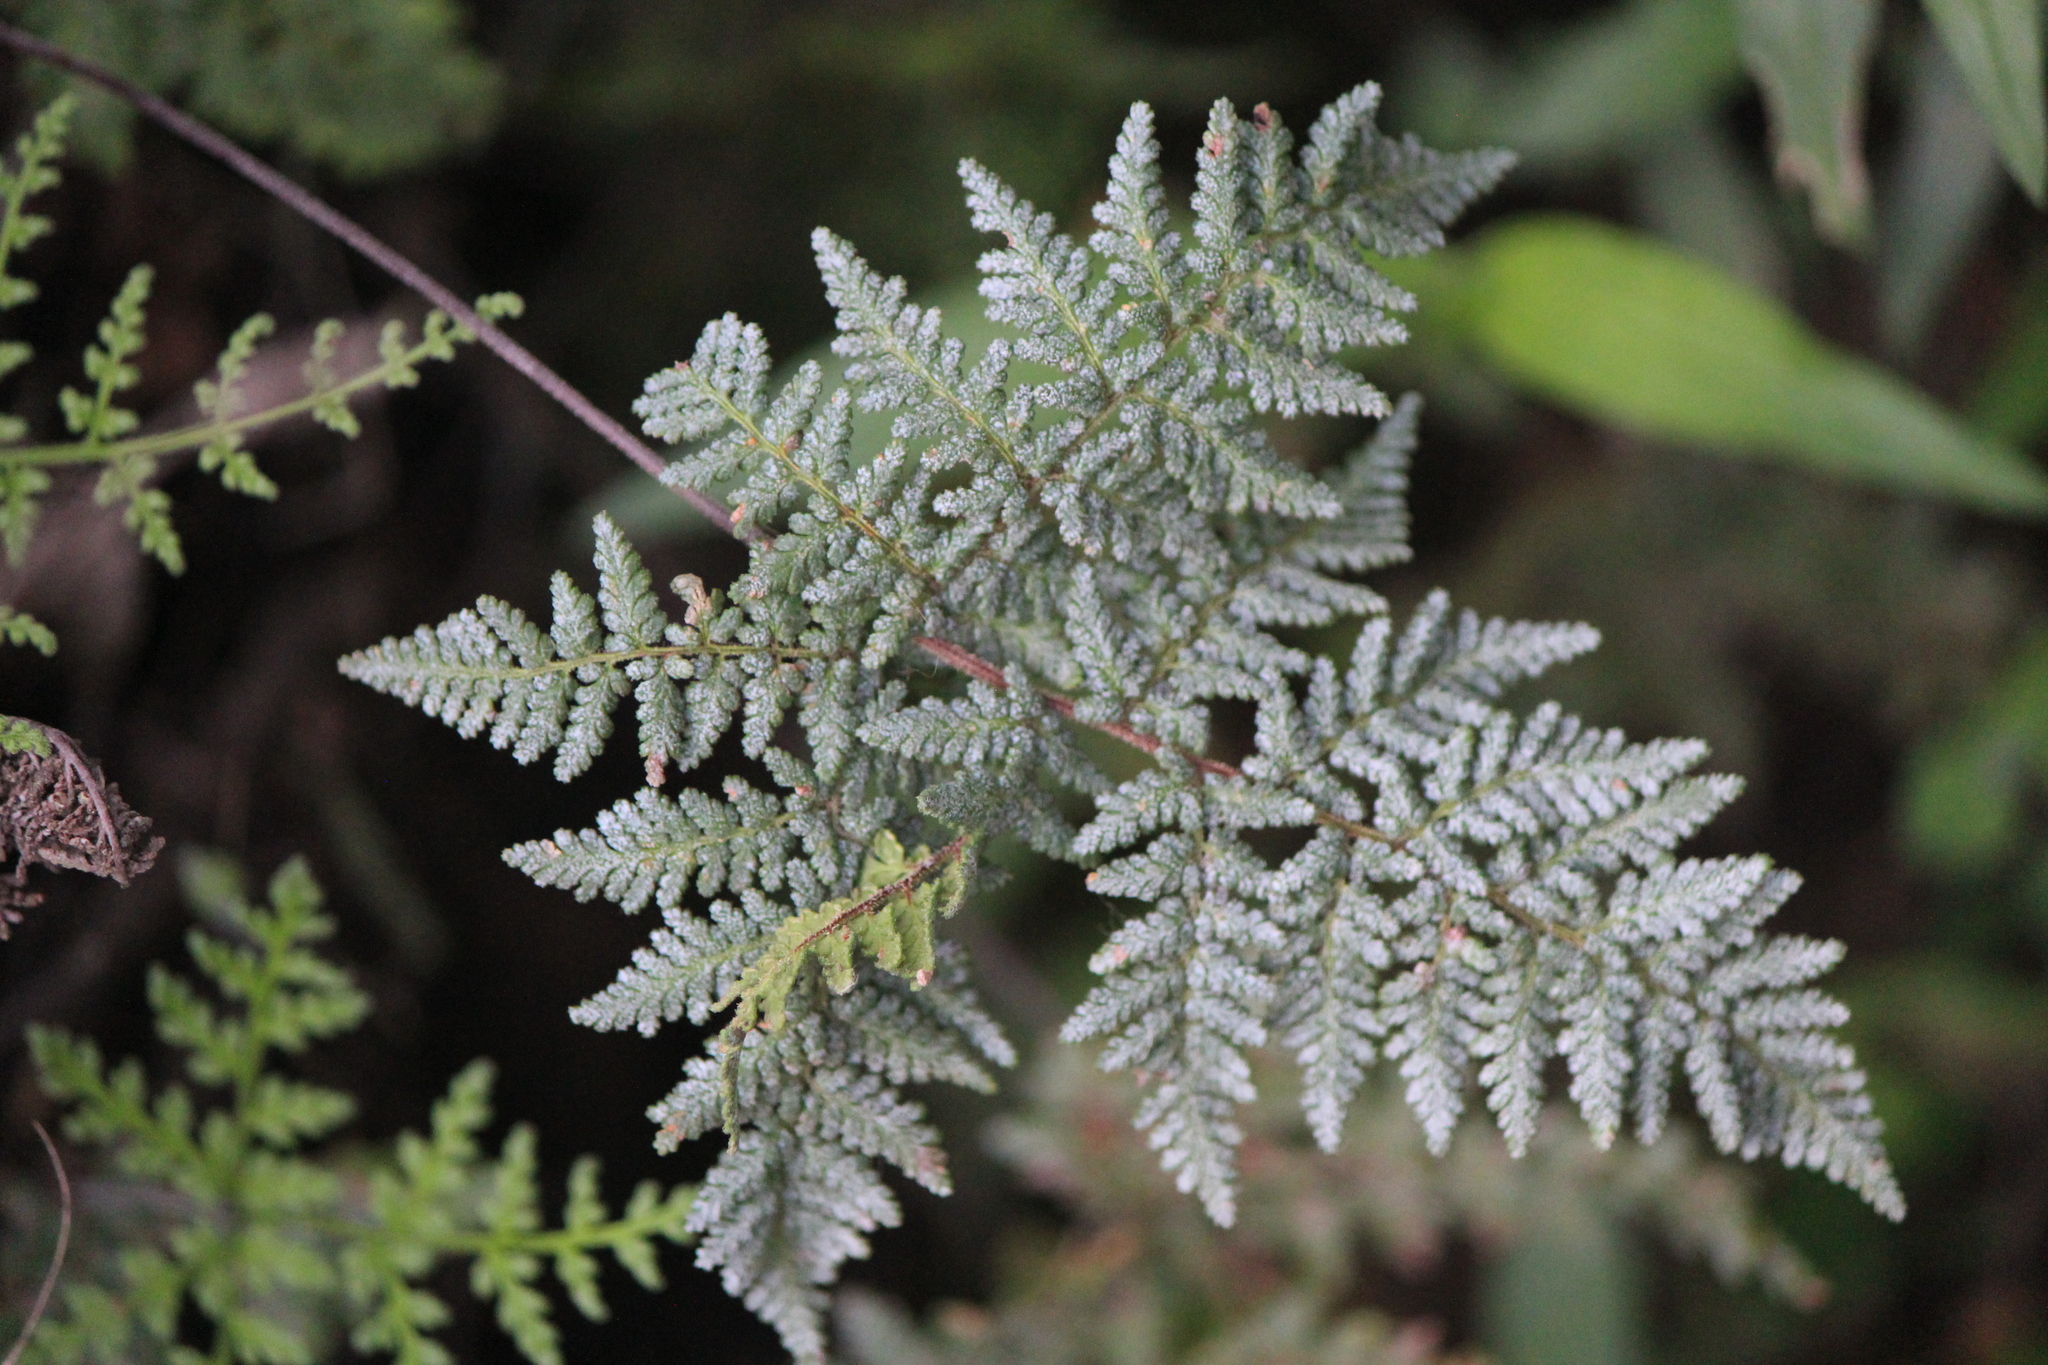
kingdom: Plantae
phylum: Tracheophyta
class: Polypodiopsida
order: Polypodiales
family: Pteridaceae
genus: Cheilanthes
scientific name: Cheilanthes leucopoda
